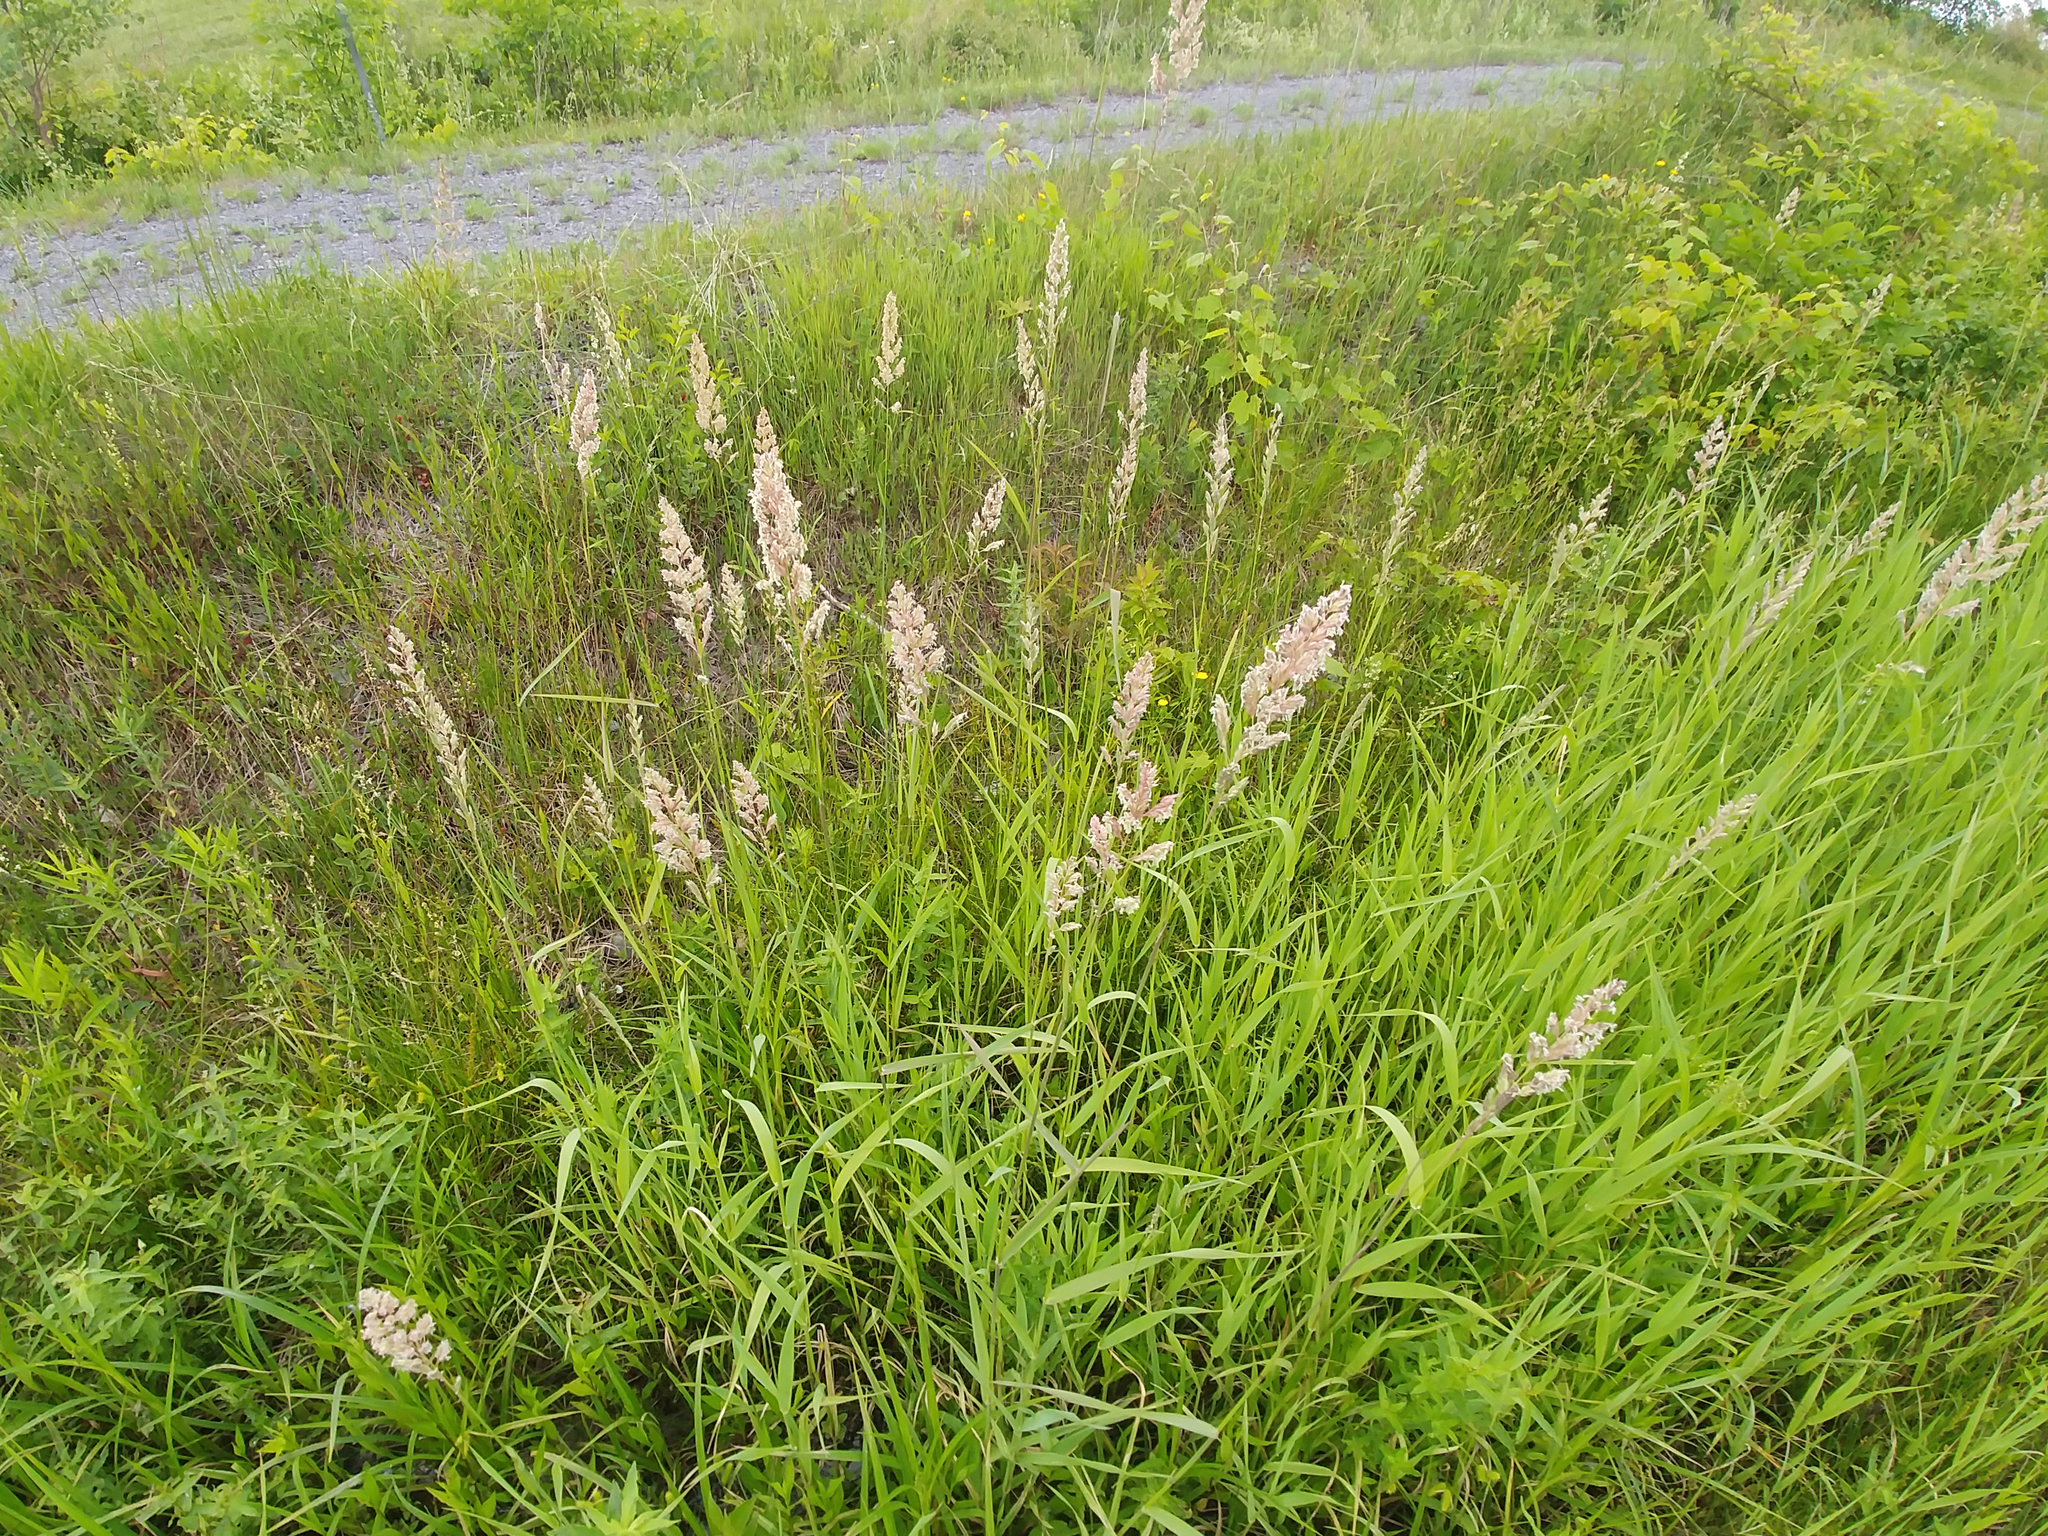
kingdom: Plantae
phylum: Tracheophyta
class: Liliopsida
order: Poales
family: Poaceae
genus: Phalaris
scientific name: Phalaris arundinacea
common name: Reed canary-grass
